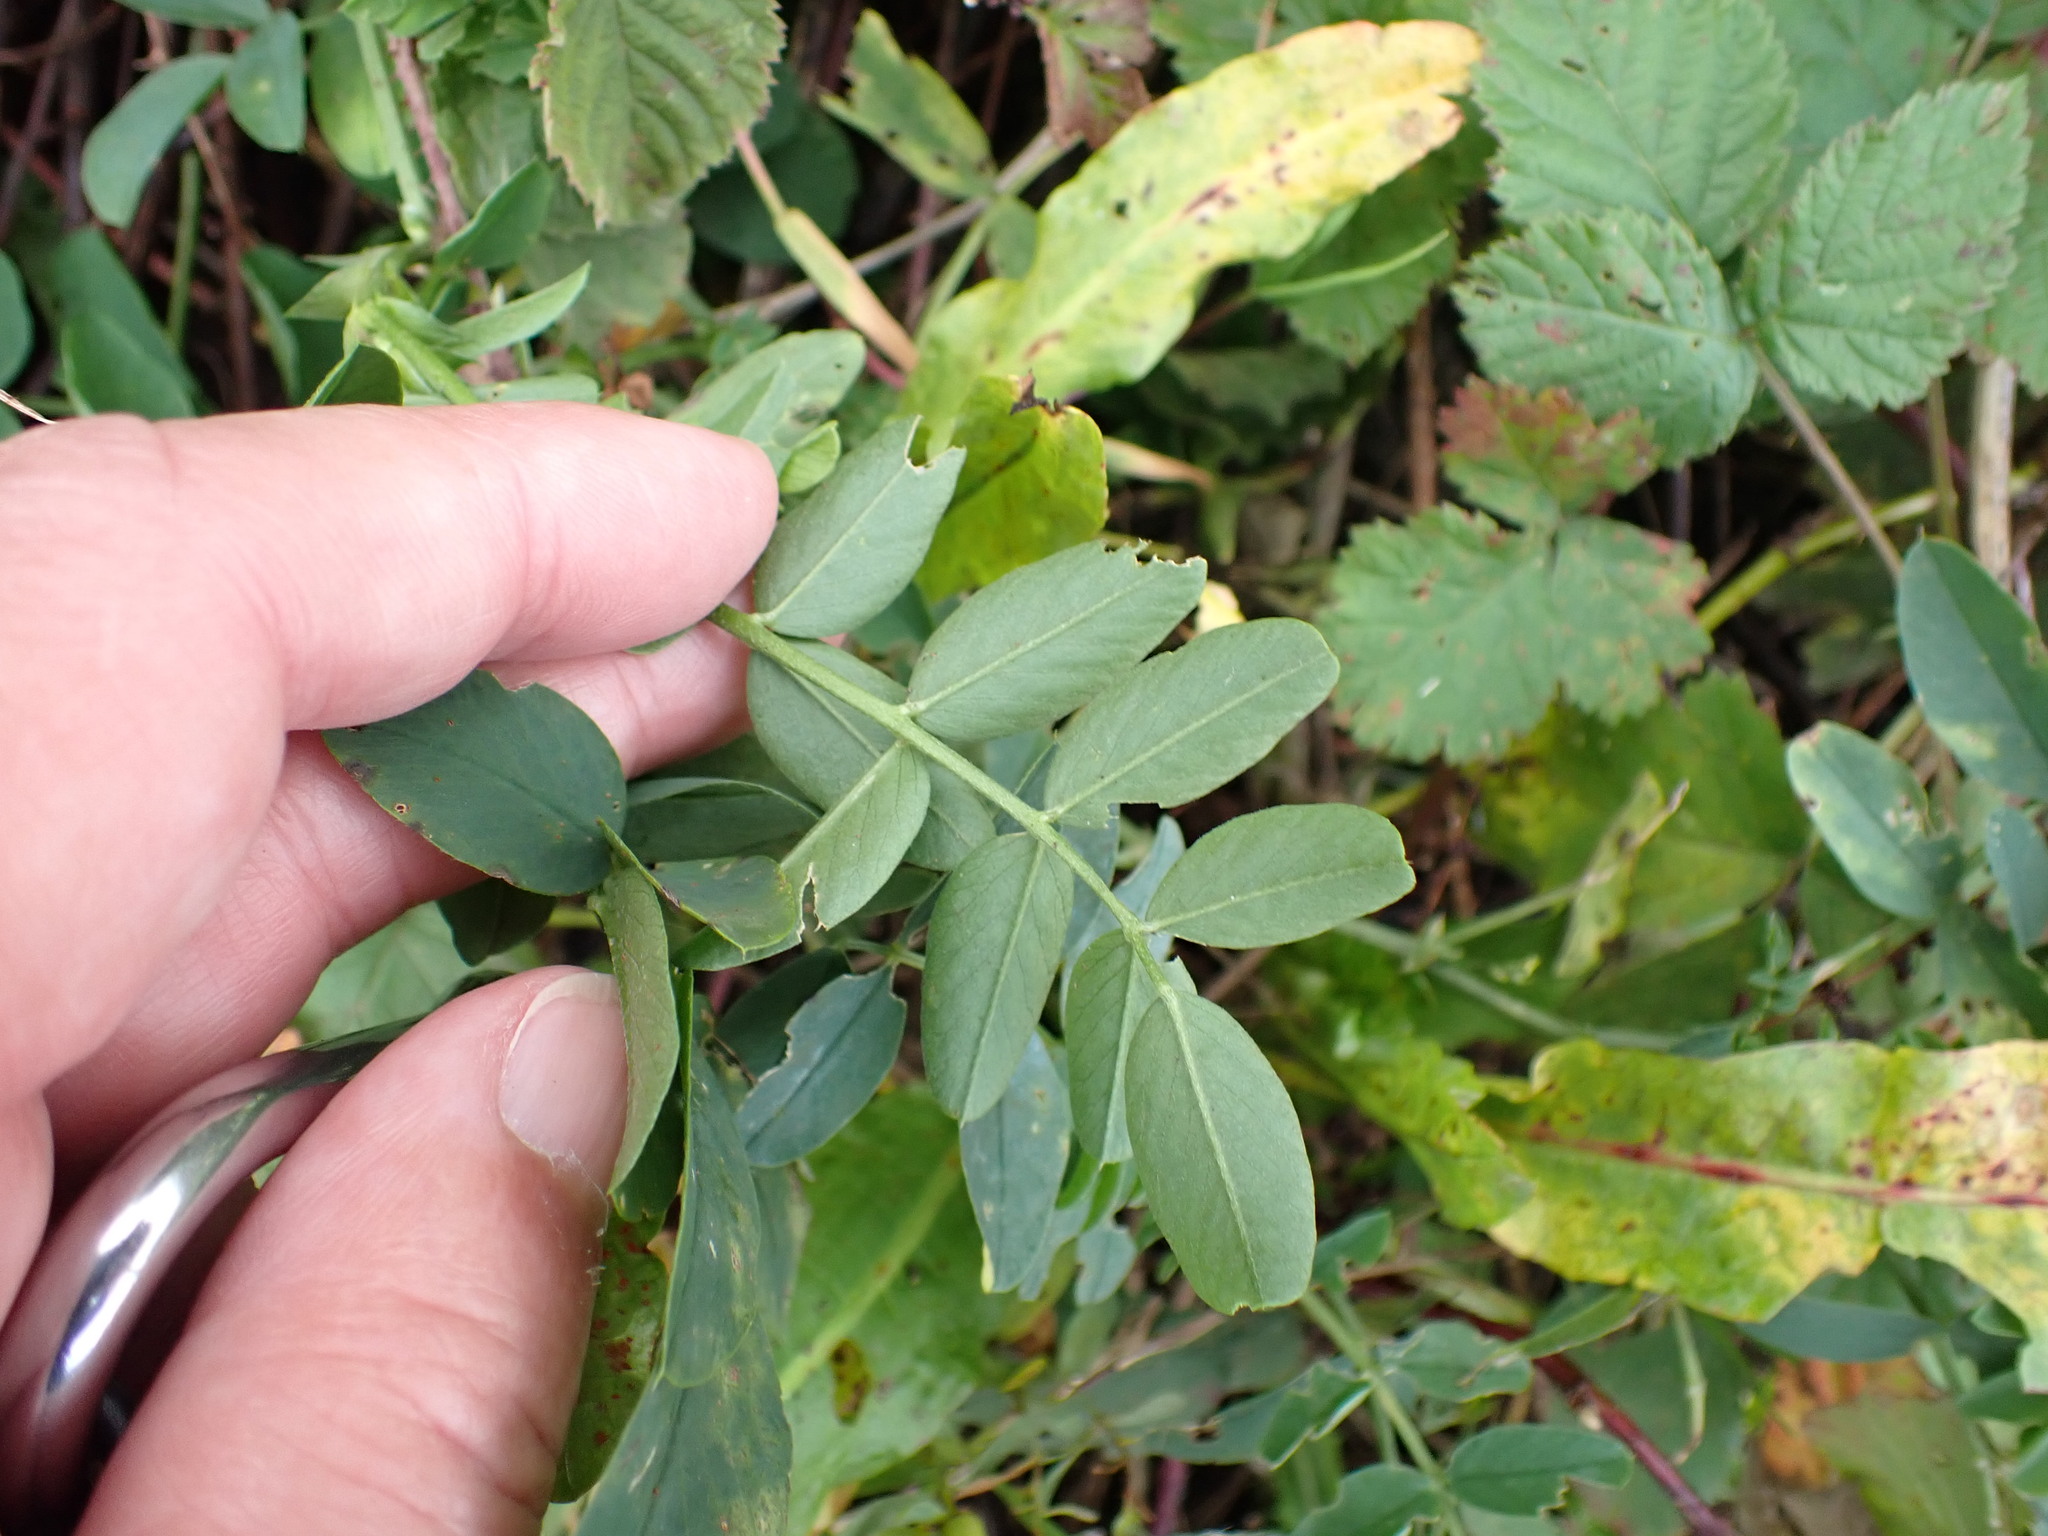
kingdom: Plantae
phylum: Tracheophyta
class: Magnoliopsida
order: Fabales
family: Fabaceae
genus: Galega
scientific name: Galega officinalis
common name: Goat's-rue
